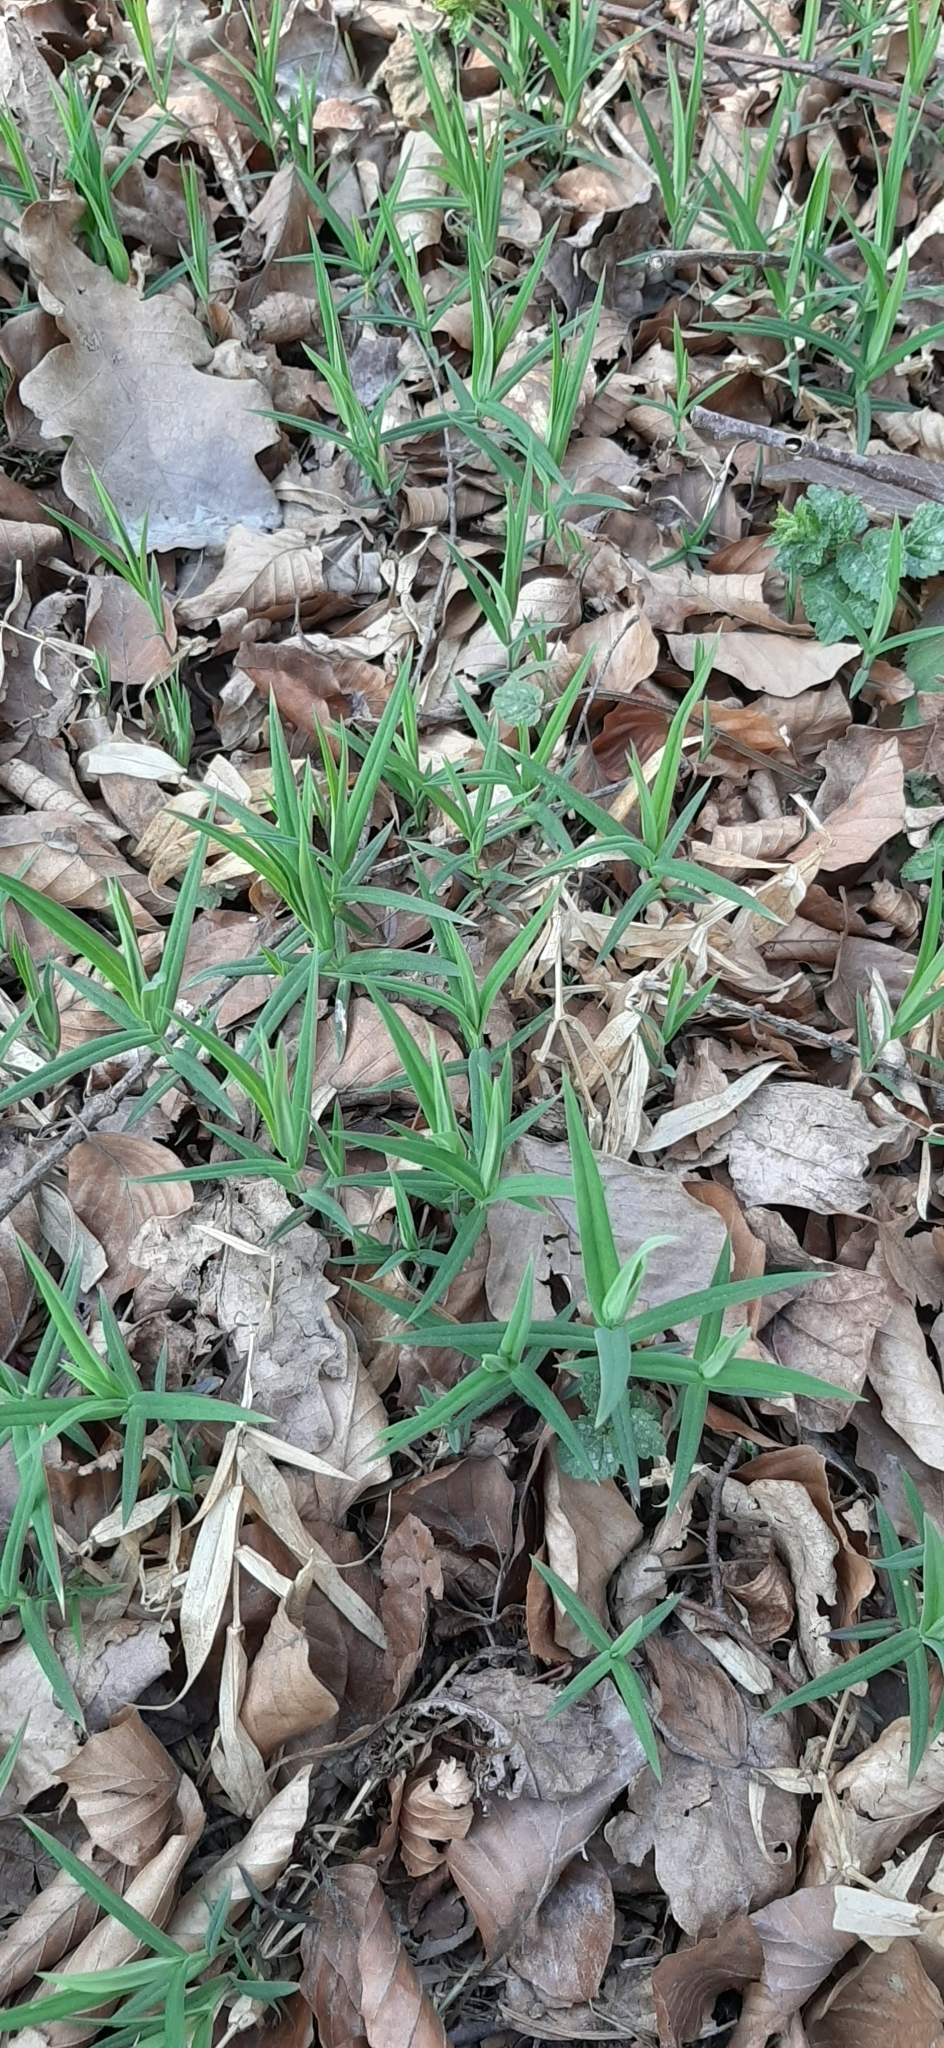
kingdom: Plantae
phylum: Tracheophyta
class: Magnoliopsida
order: Caryophyllales
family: Caryophyllaceae
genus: Rabelera
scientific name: Rabelera holostea
